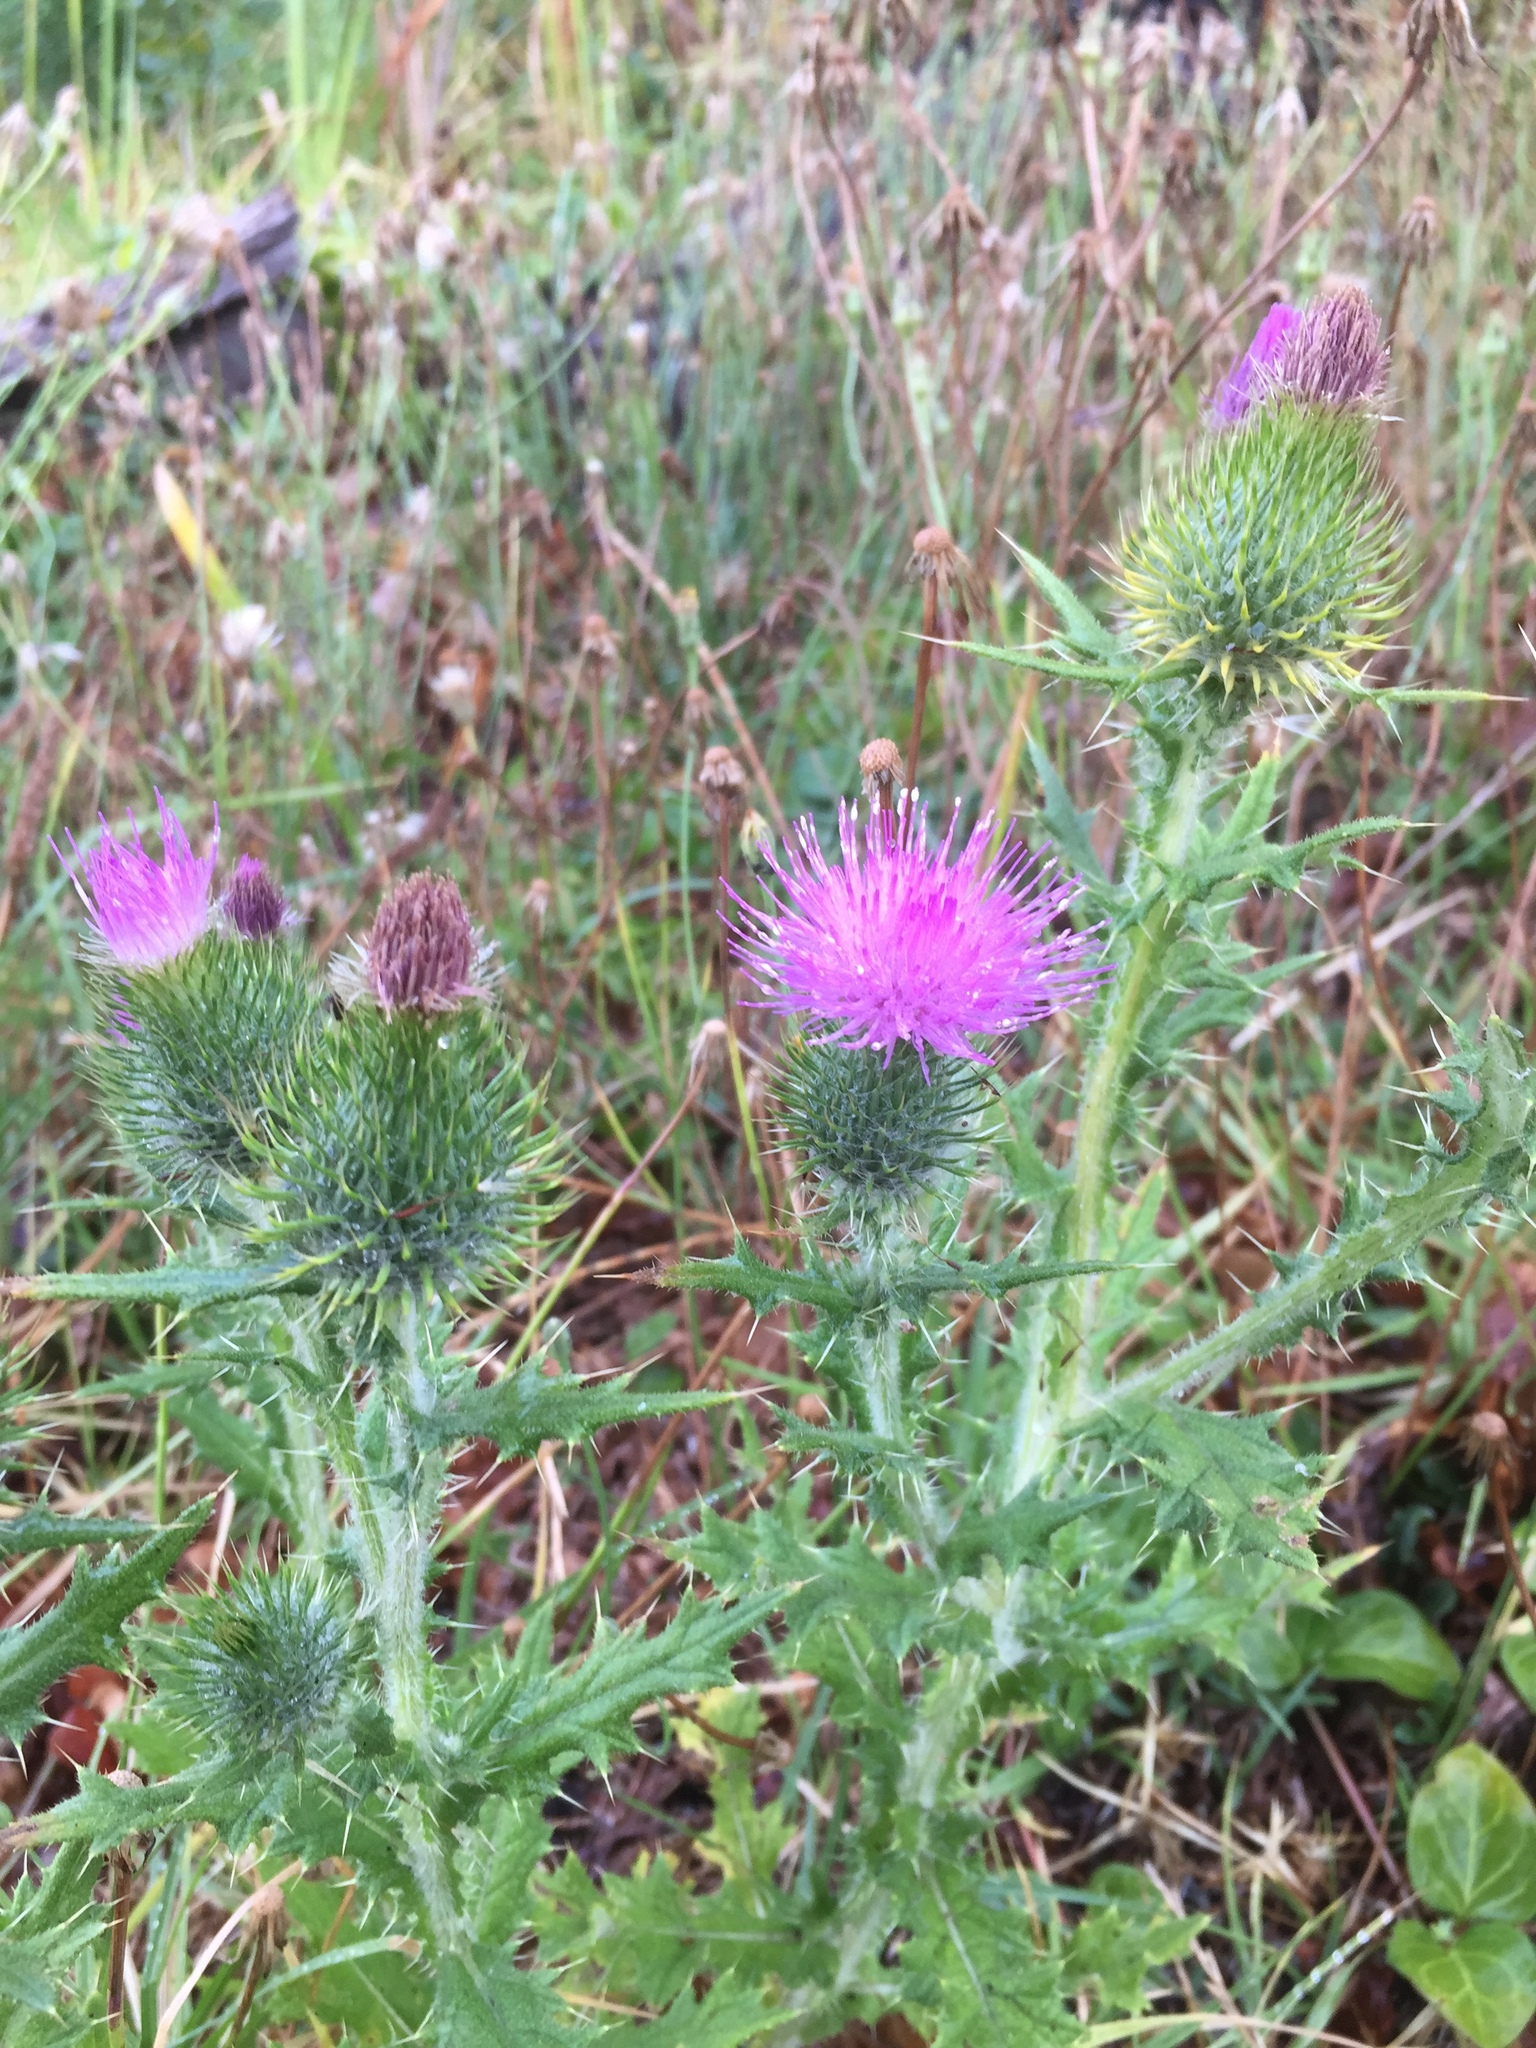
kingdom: Plantae
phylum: Tracheophyta
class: Magnoliopsida
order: Asterales
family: Asteraceae
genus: Cirsium
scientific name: Cirsium vulgare
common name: Bull thistle
